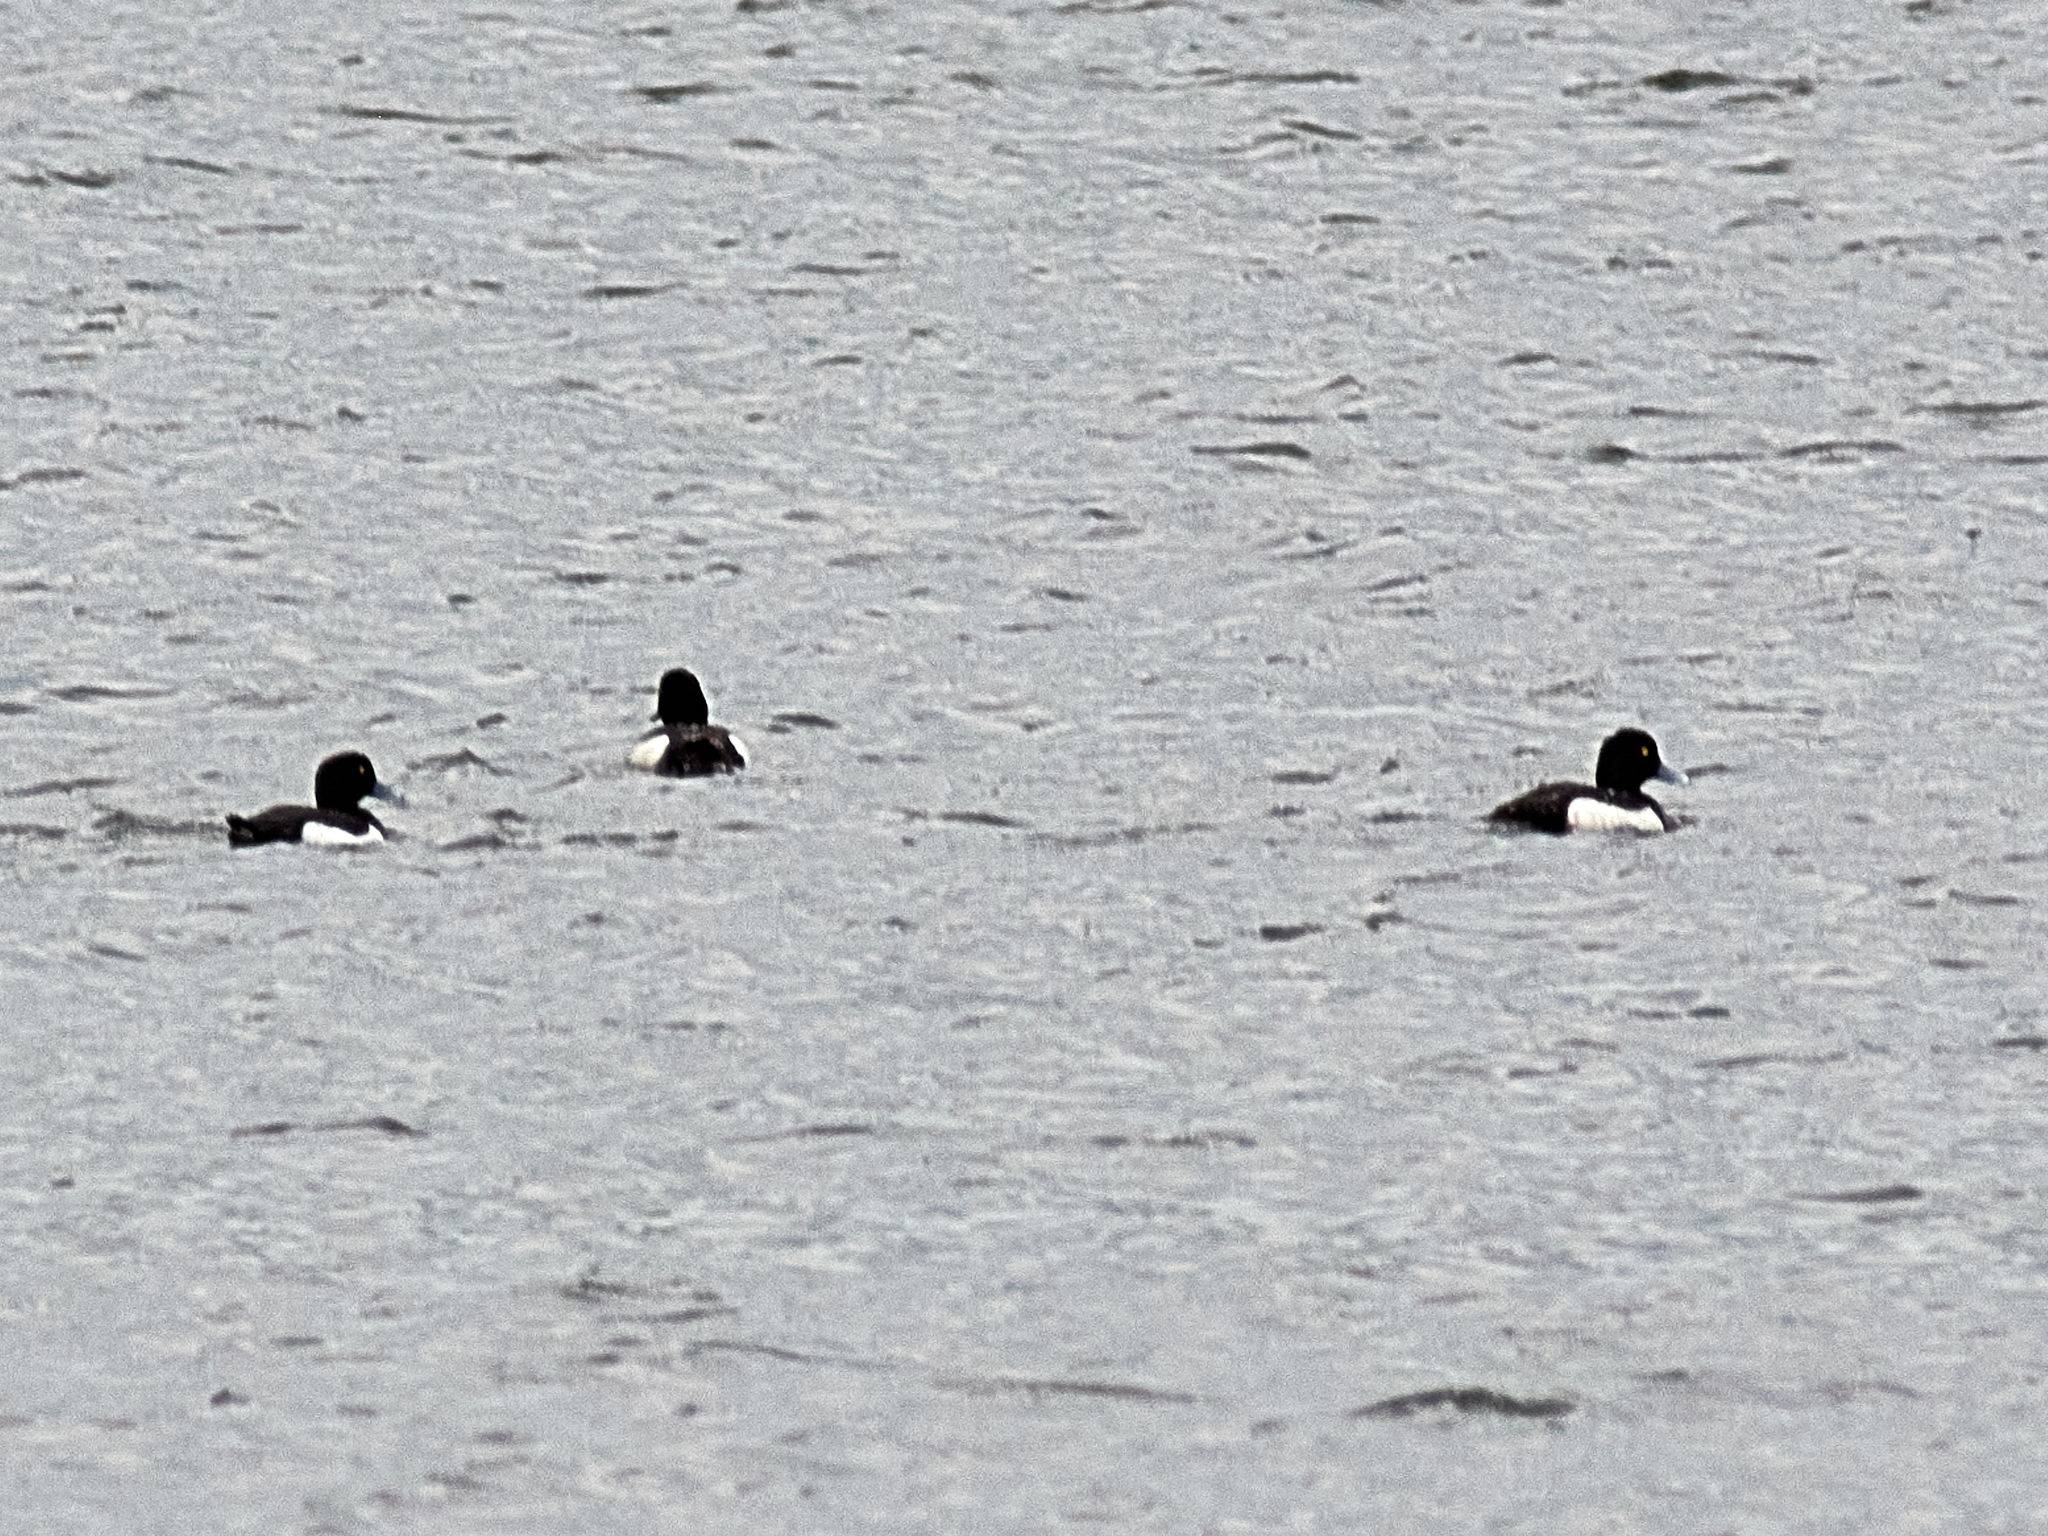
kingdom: Animalia
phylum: Chordata
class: Aves
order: Anseriformes
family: Anatidae
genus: Aythya
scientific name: Aythya fuligula
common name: Tufted duck
